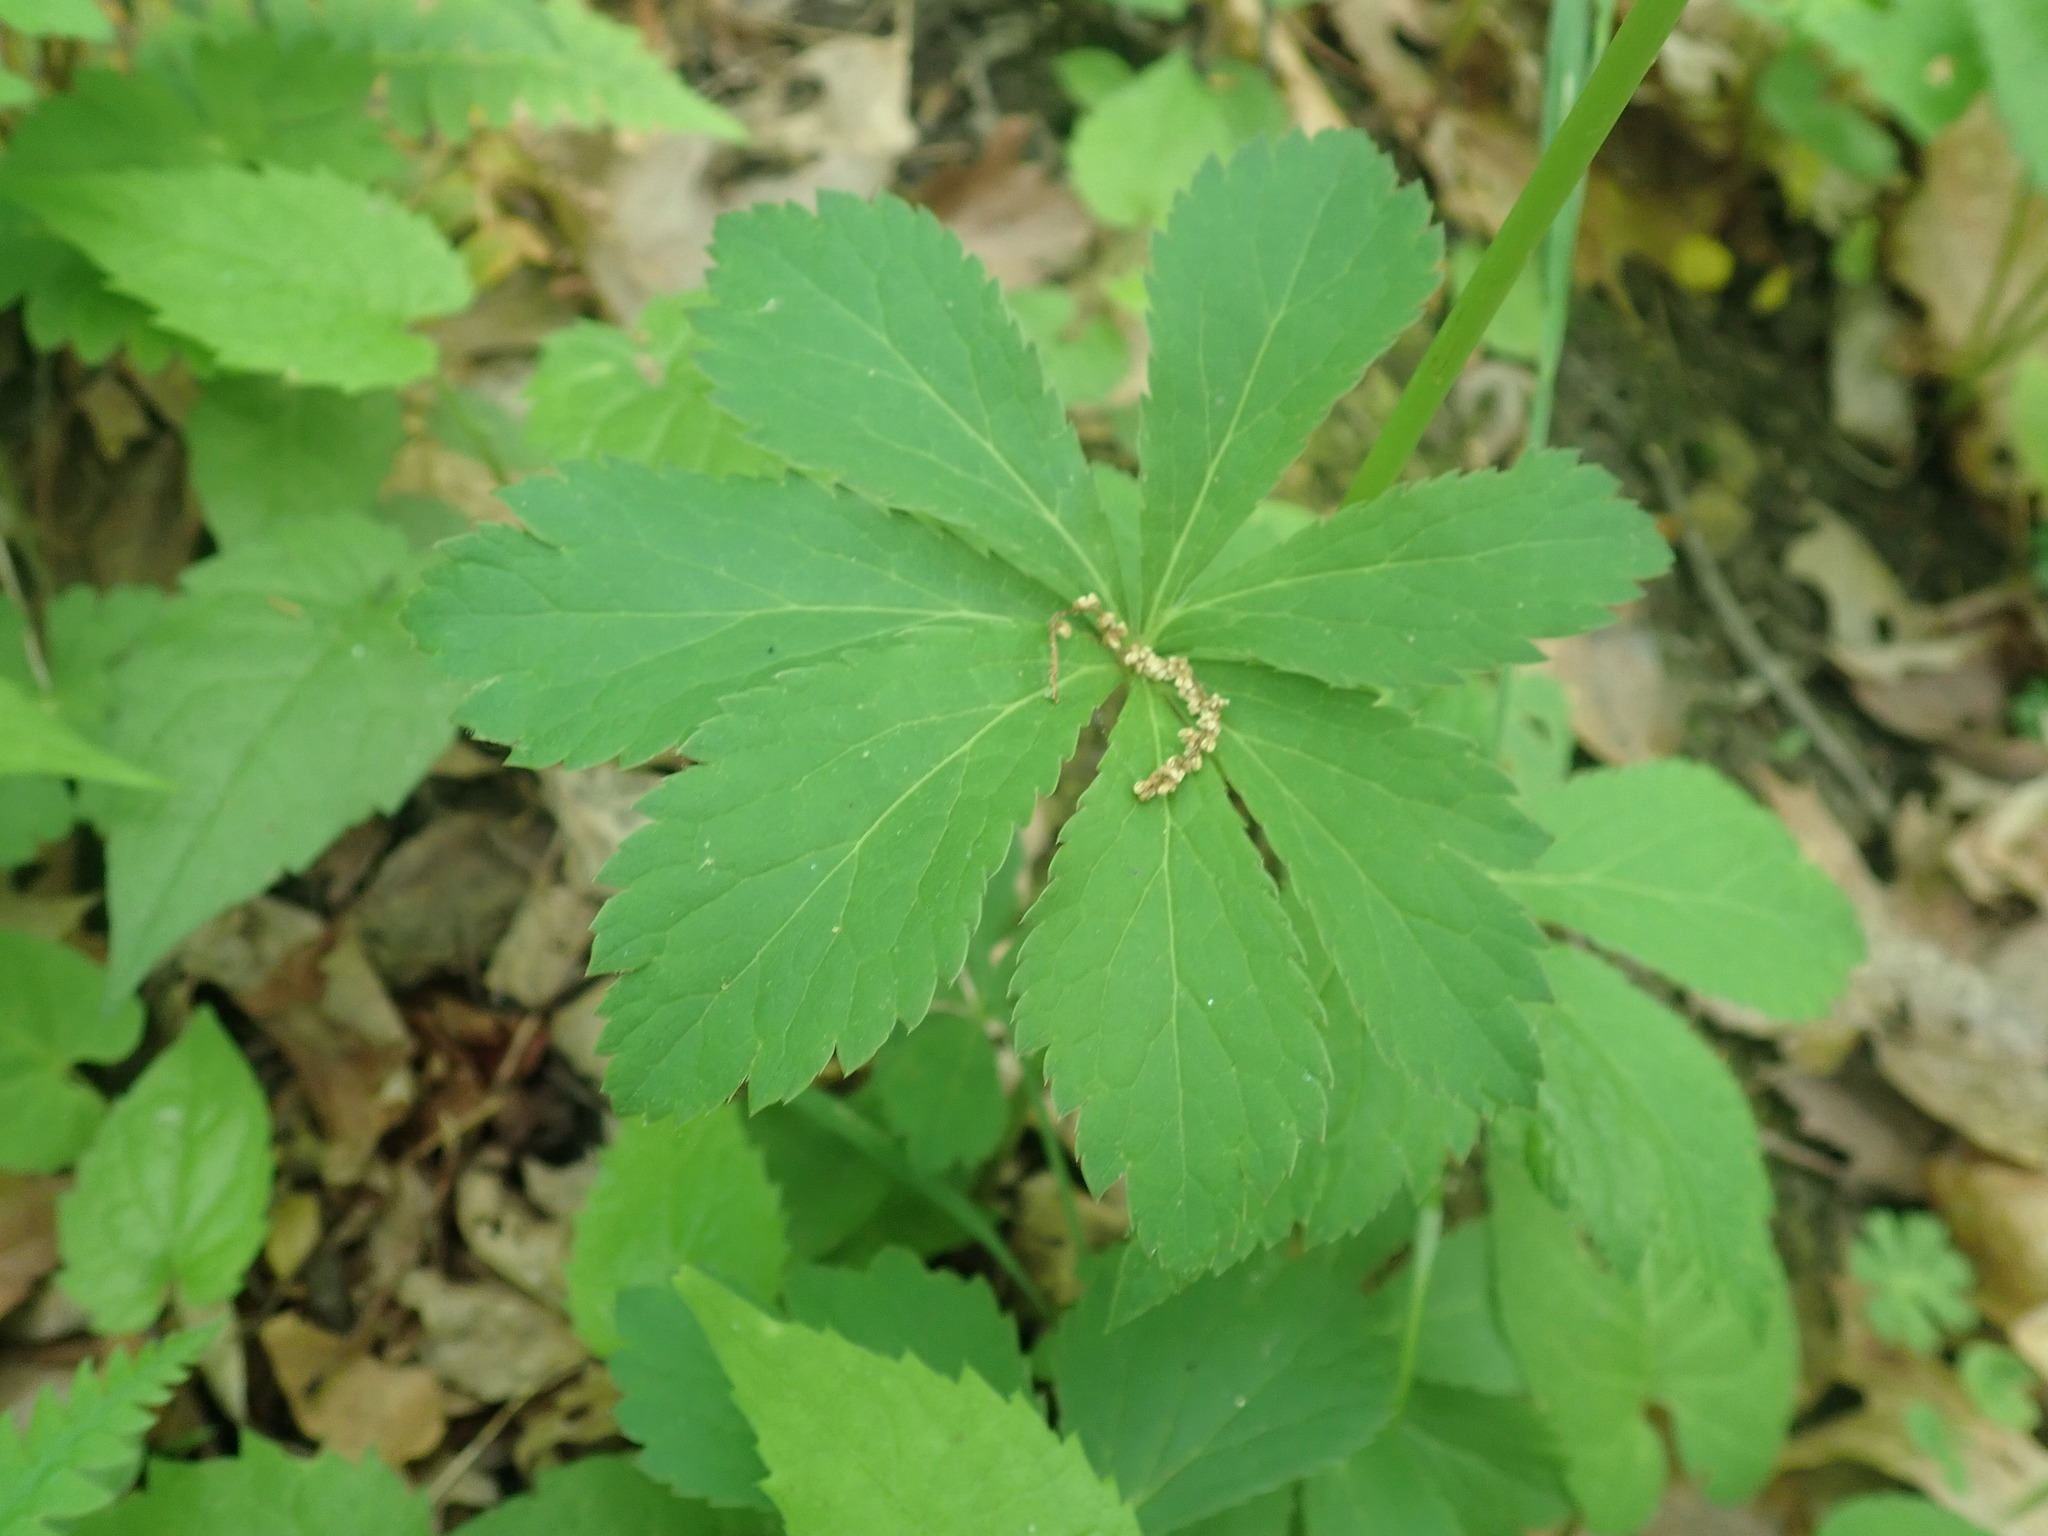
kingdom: Plantae
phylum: Tracheophyta
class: Magnoliopsida
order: Apiales
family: Apiaceae
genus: Sanicula
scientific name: Sanicula marilandica
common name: Black snakeroot
